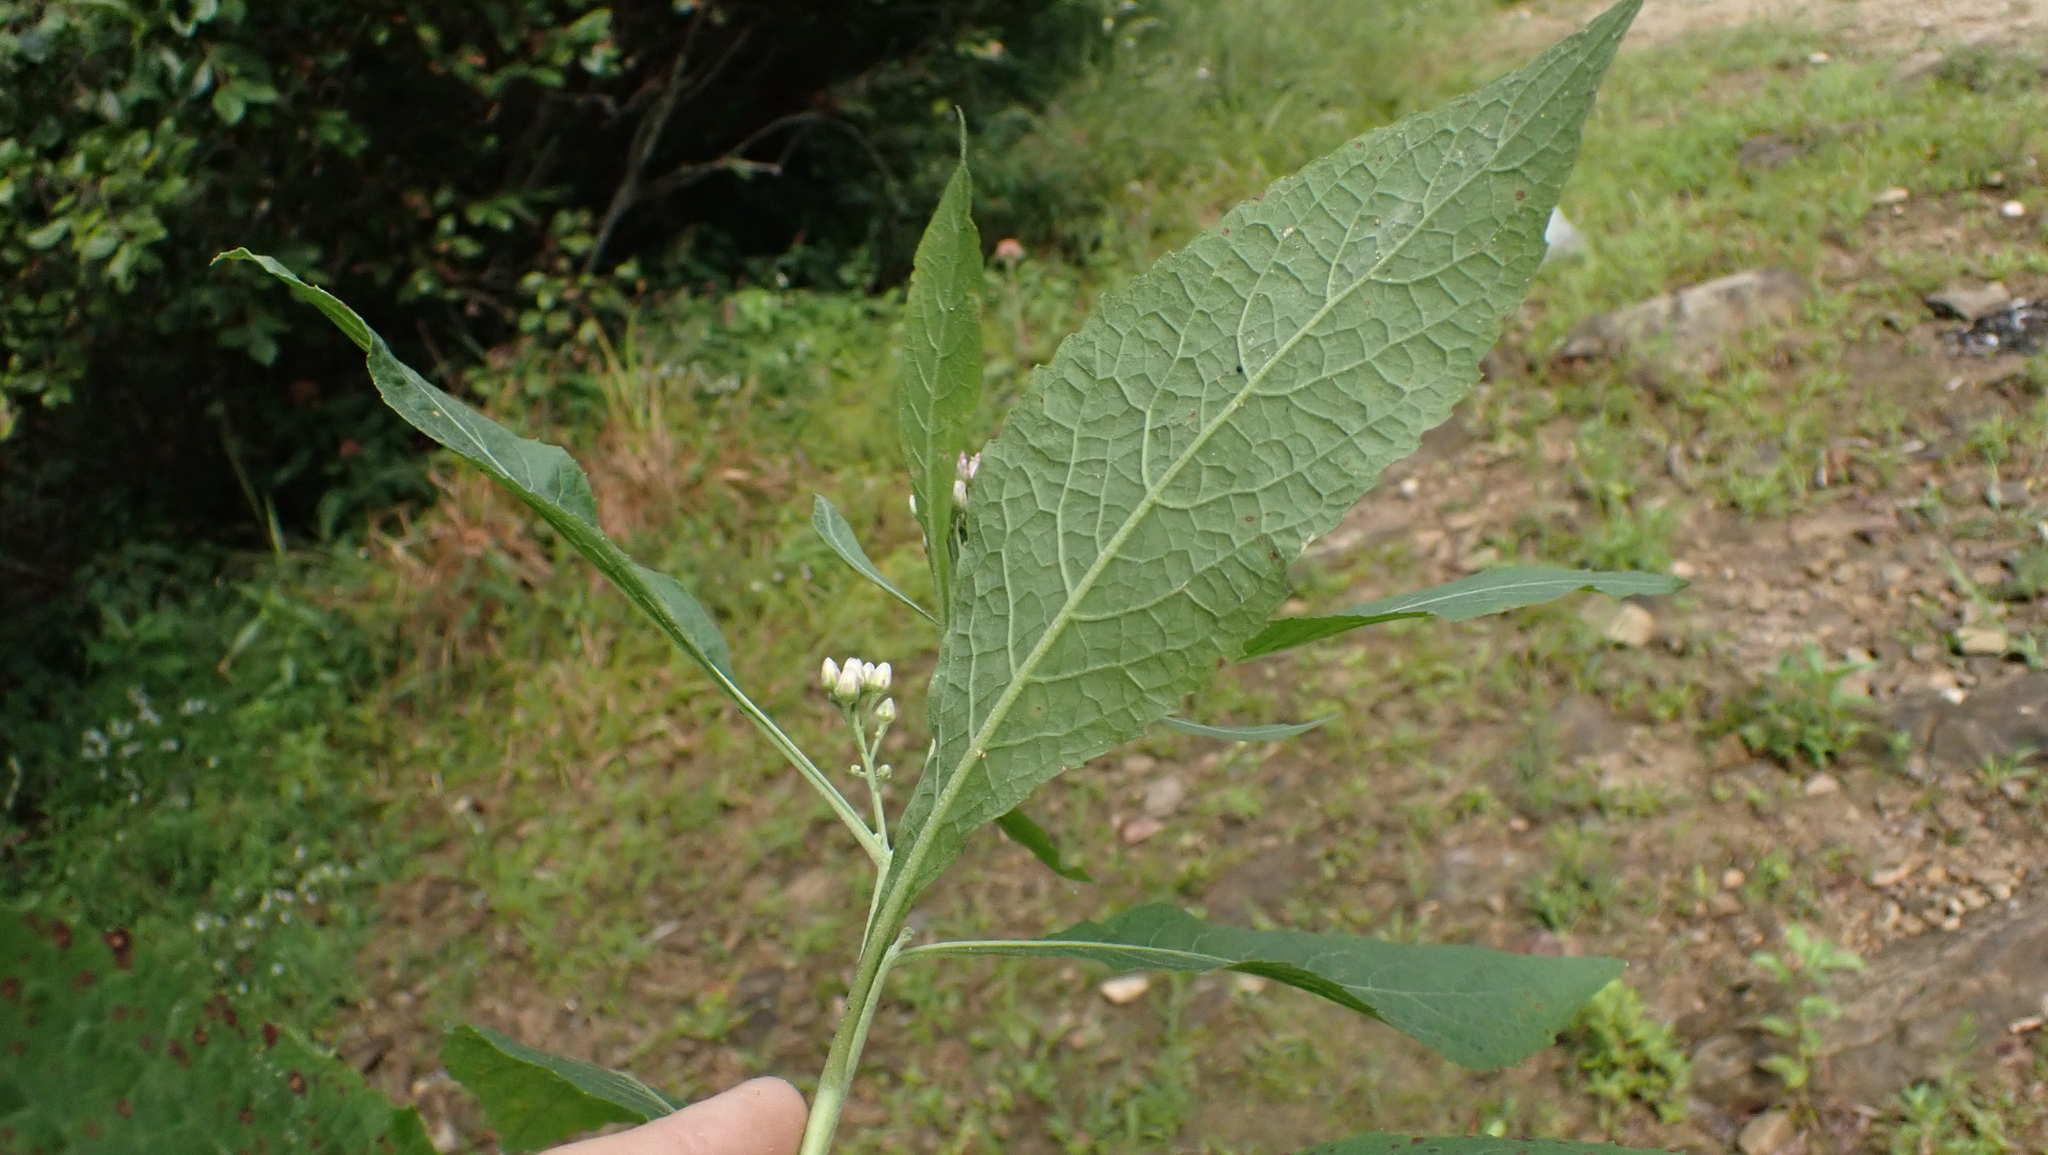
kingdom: Plantae
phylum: Tracheophyta
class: Magnoliopsida
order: Asterales
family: Asteraceae
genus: Pluchea
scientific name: Pluchea camphorata
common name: Camphor pluchea
